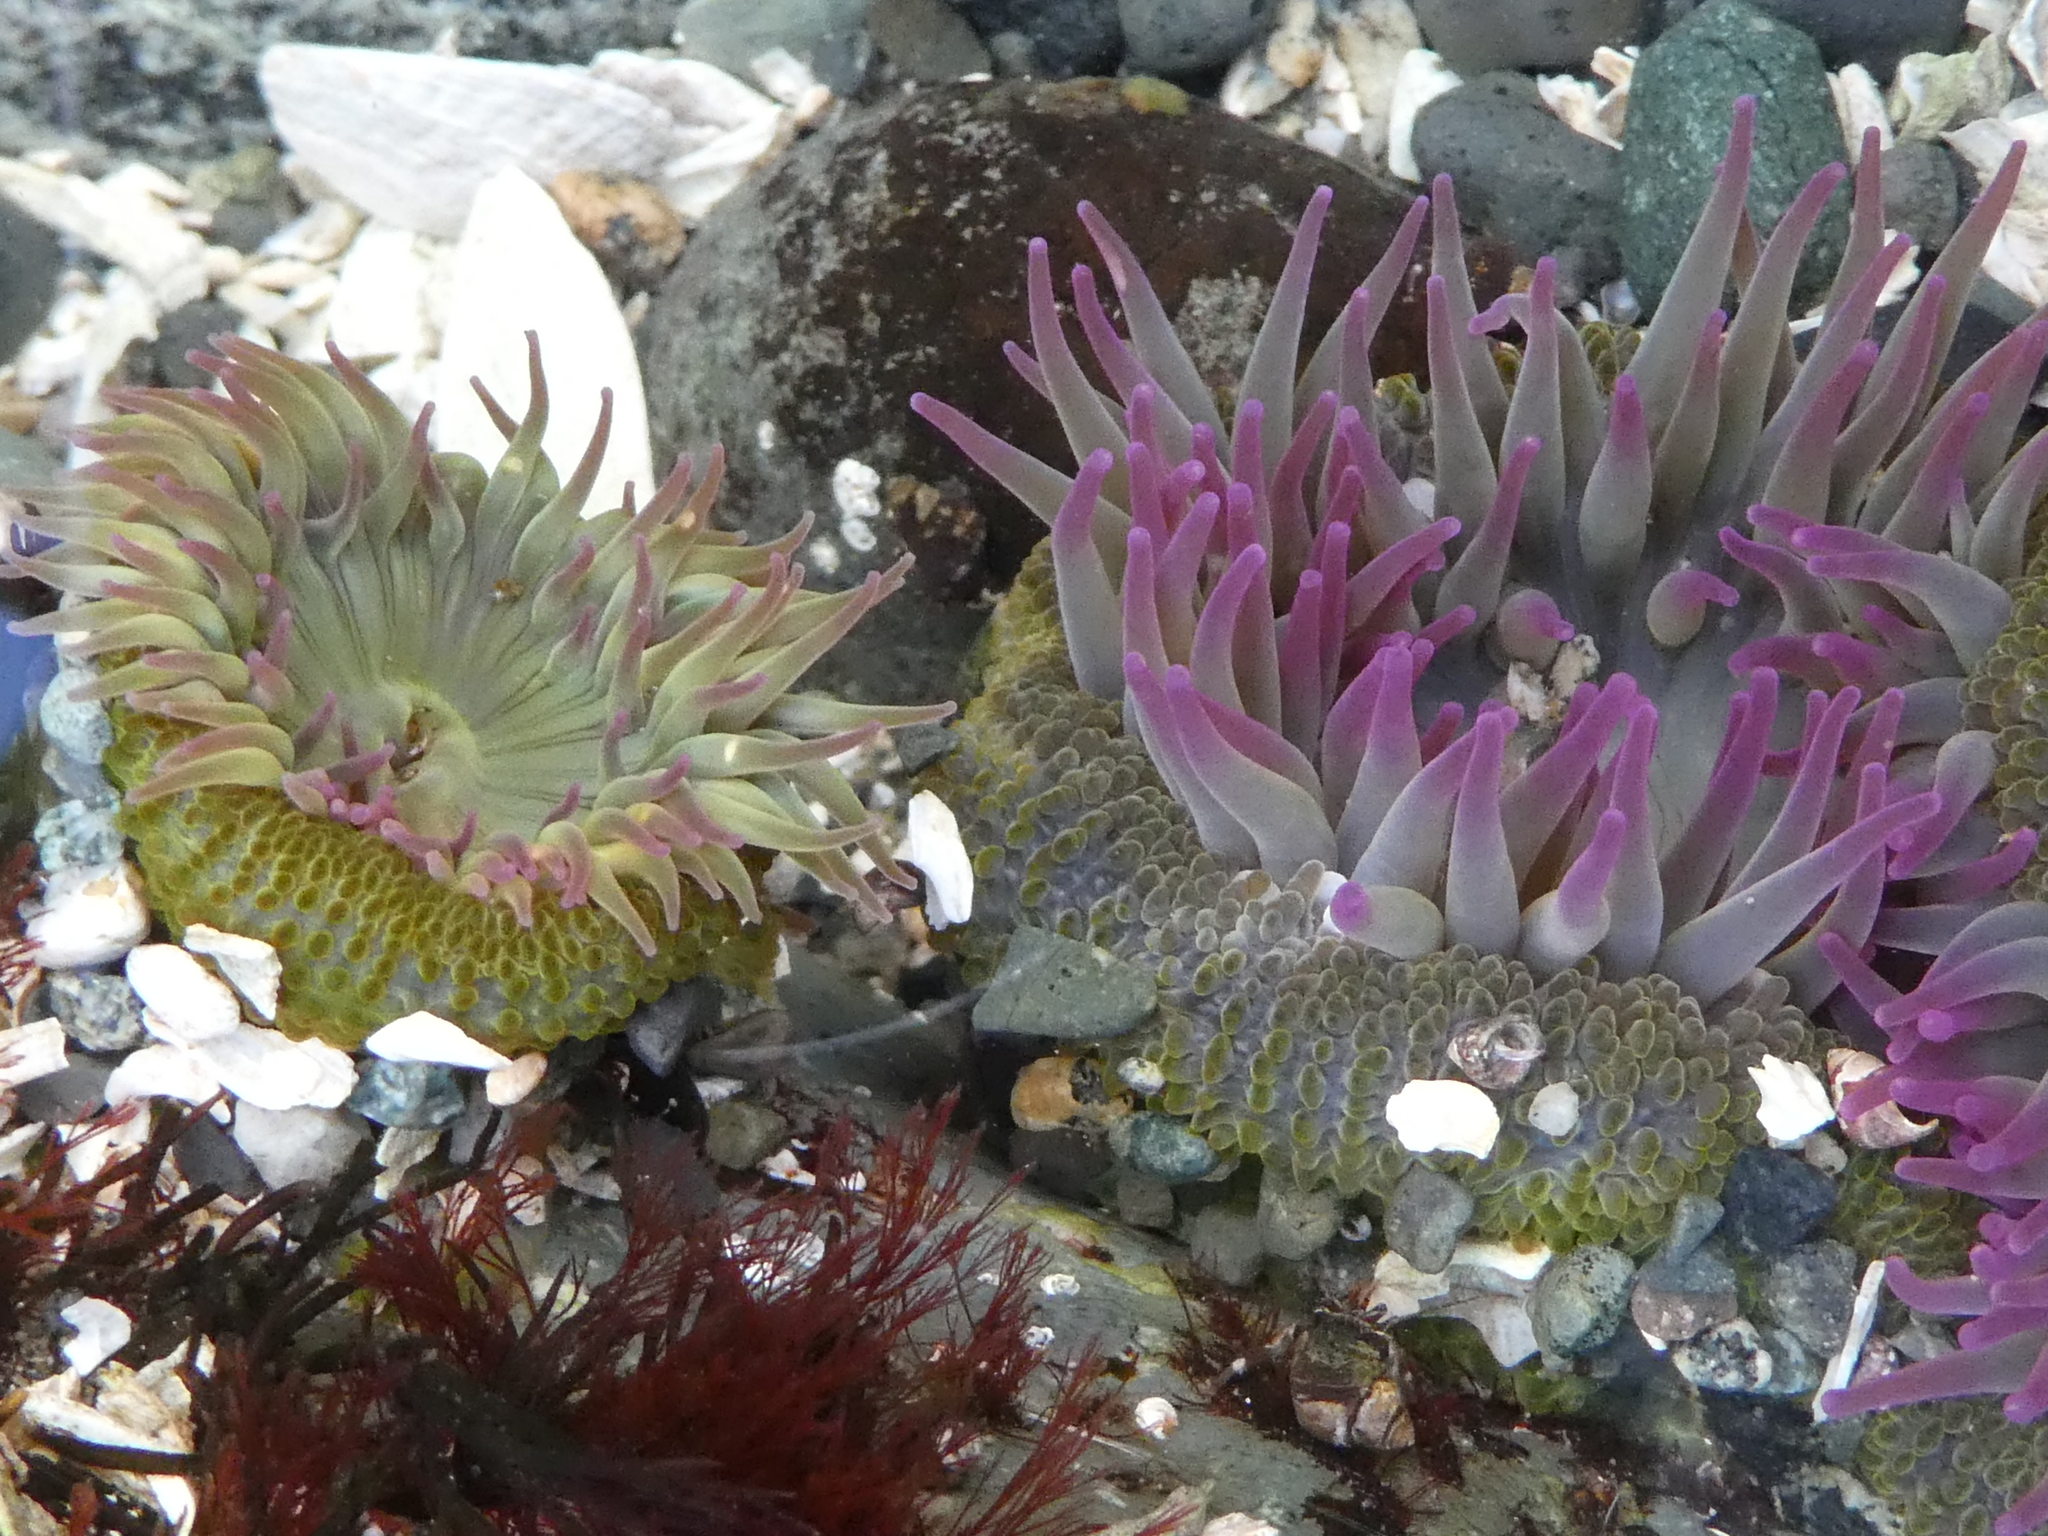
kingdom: Animalia
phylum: Cnidaria
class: Anthozoa
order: Actiniaria
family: Actiniidae
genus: Anthopleura
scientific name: Anthopleura elegantissima
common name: Clonal anemone
